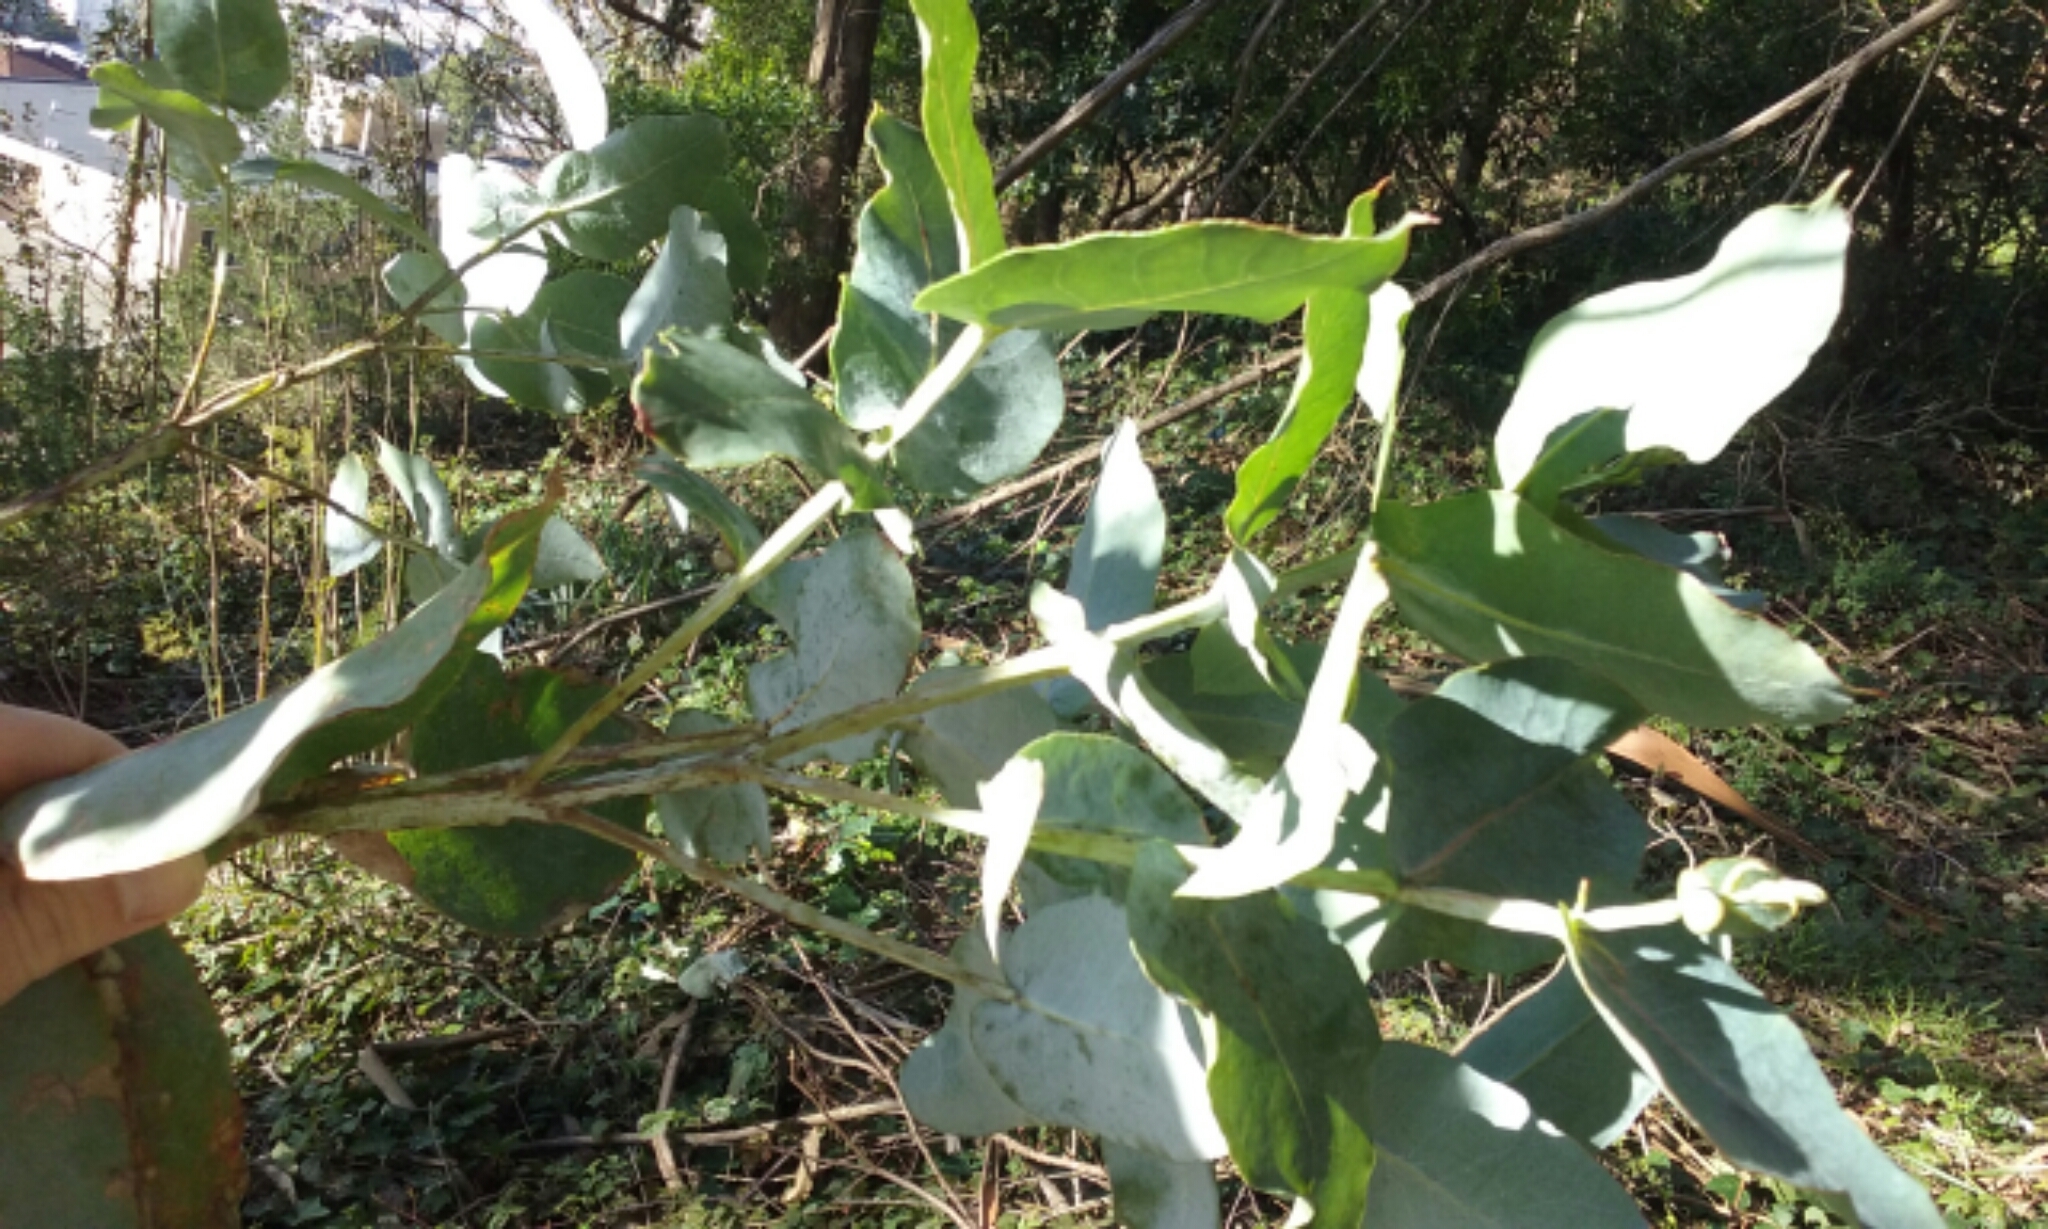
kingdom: Plantae
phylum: Tracheophyta
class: Magnoliopsida
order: Myrtales
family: Myrtaceae
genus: Eucalyptus
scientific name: Eucalyptus globulus
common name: Southern blue-gum
